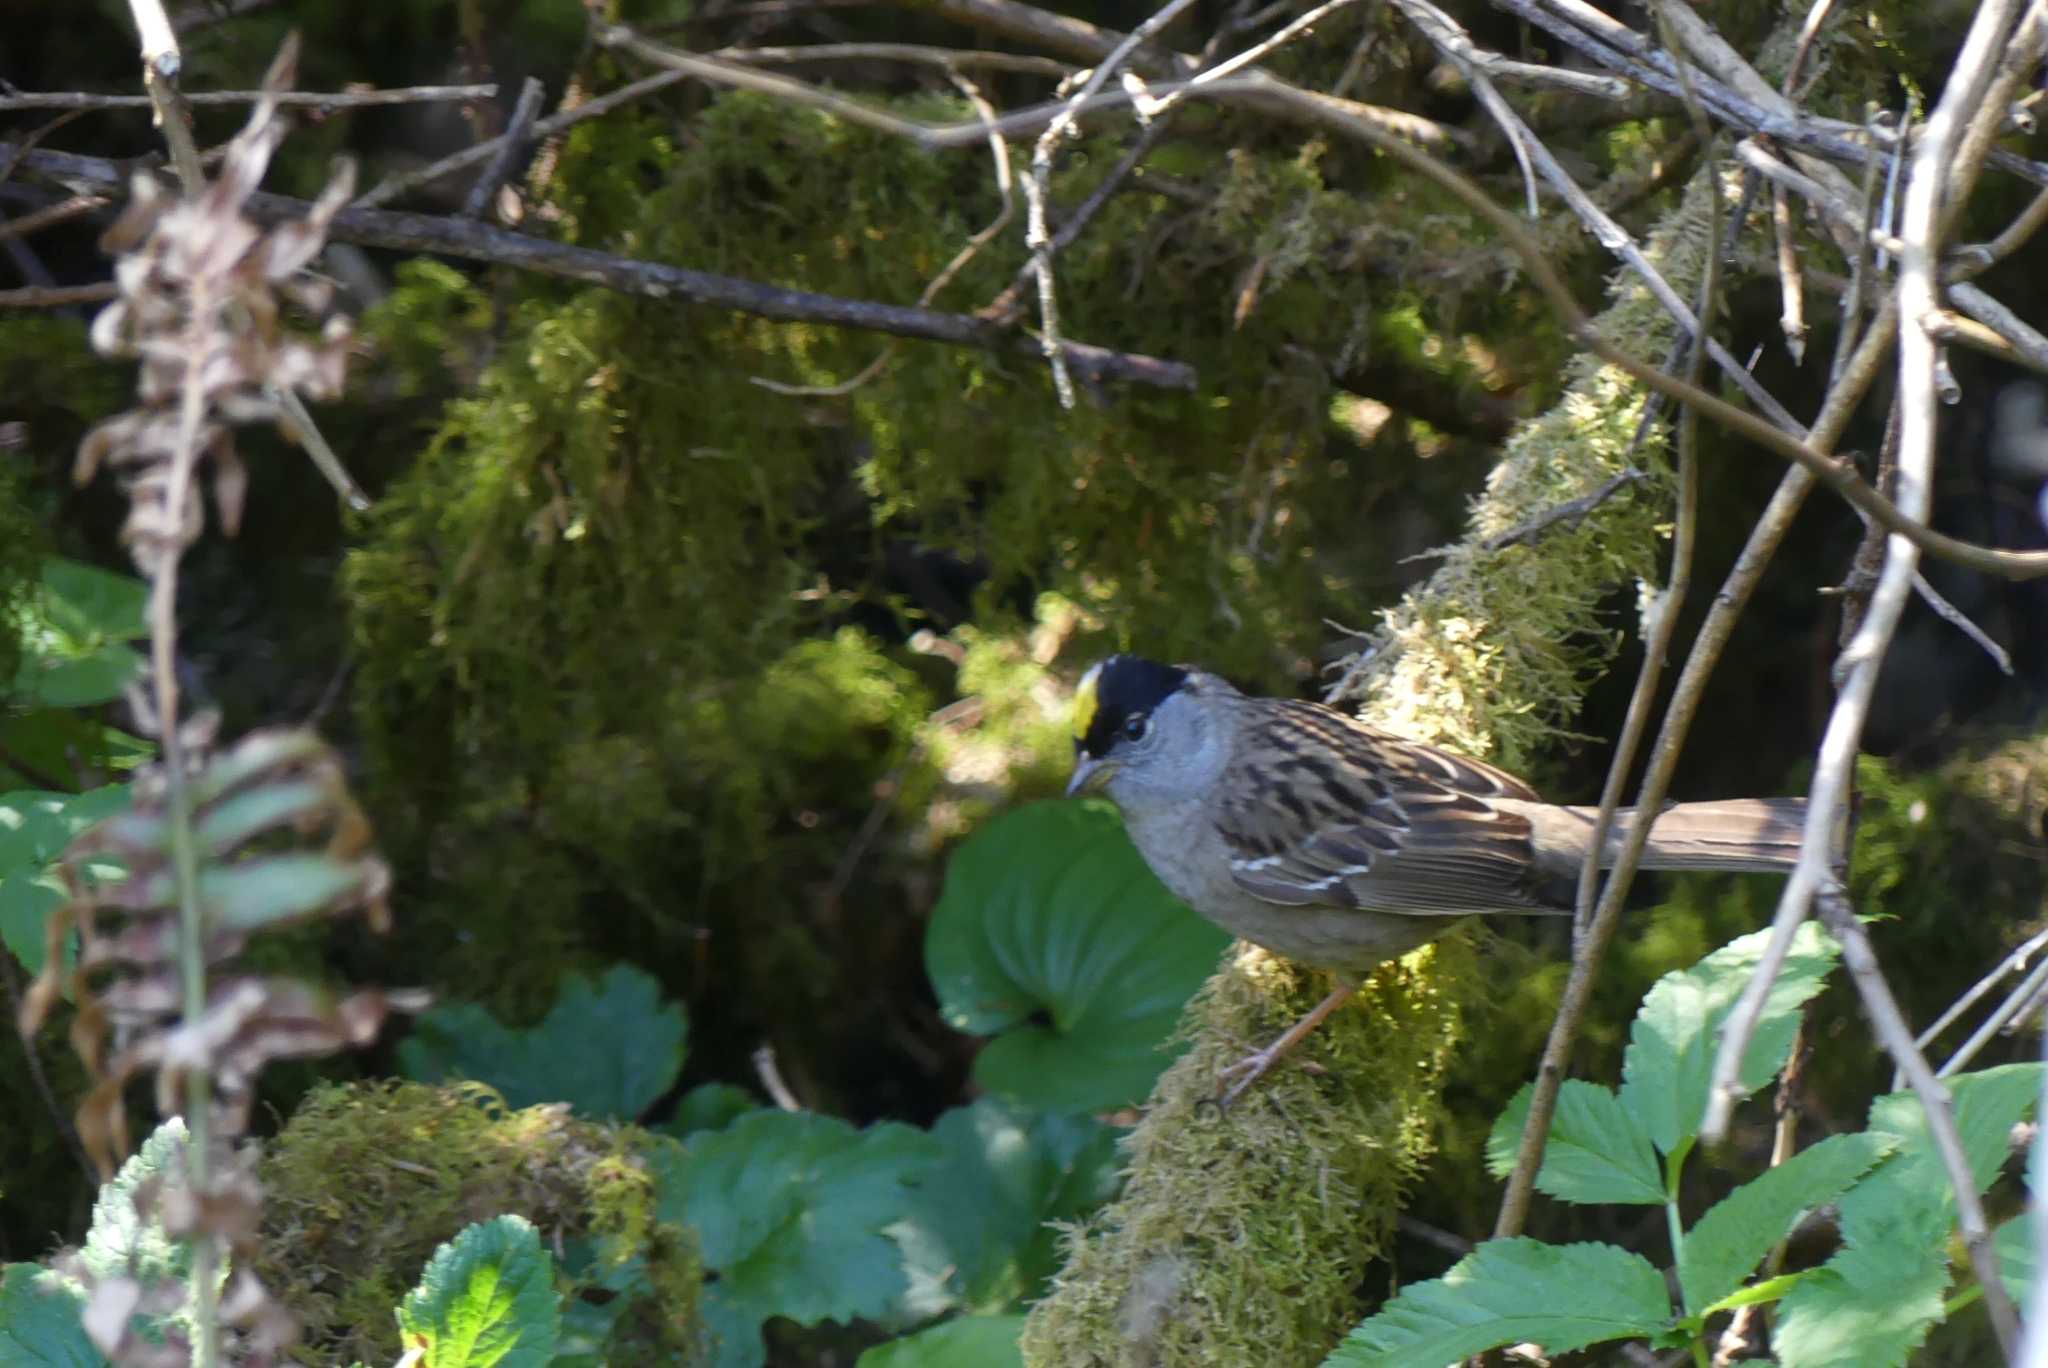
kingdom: Animalia
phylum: Chordata
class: Aves
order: Passeriformes
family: Passerellidae
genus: Zonotrichia
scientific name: Zonotrichia atricapilla
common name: Golden-crowned sparrow
